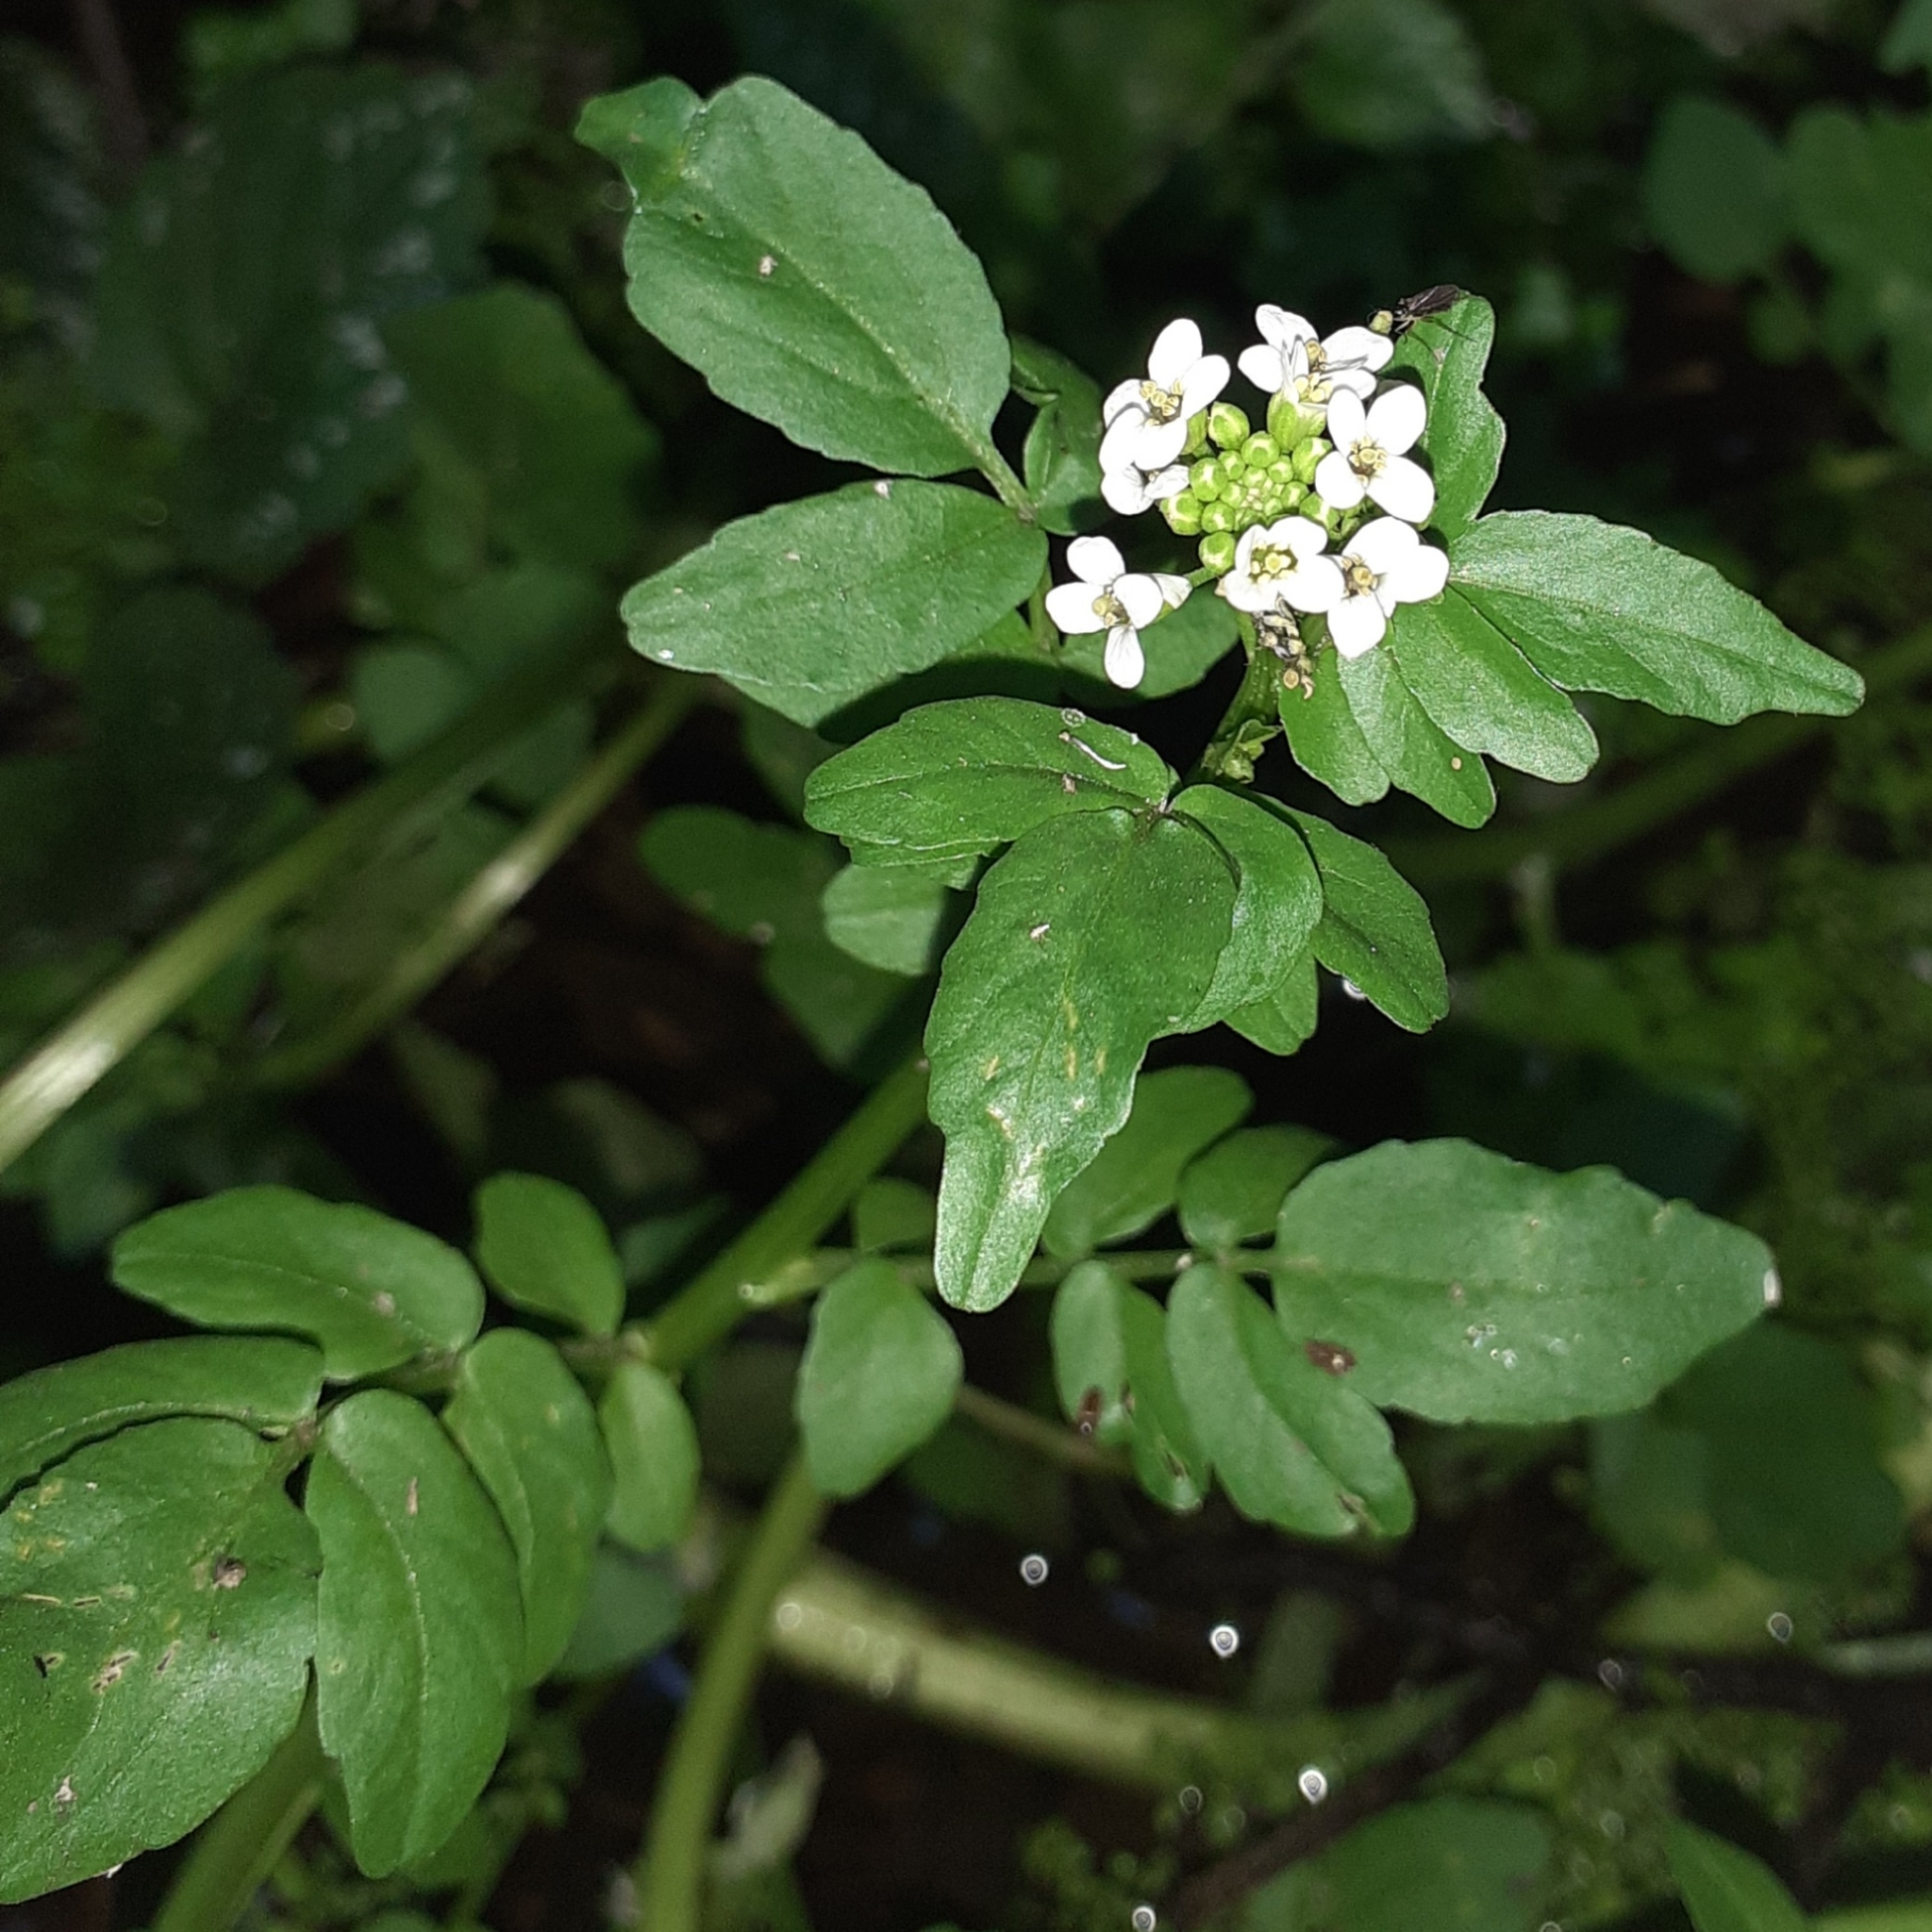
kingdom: Plantae
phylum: Tracheophyta
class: Magnoliopsida
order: Brassicales
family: Brassicaceae
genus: Nasturtium
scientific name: Nasturtium officinale
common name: Watercress
